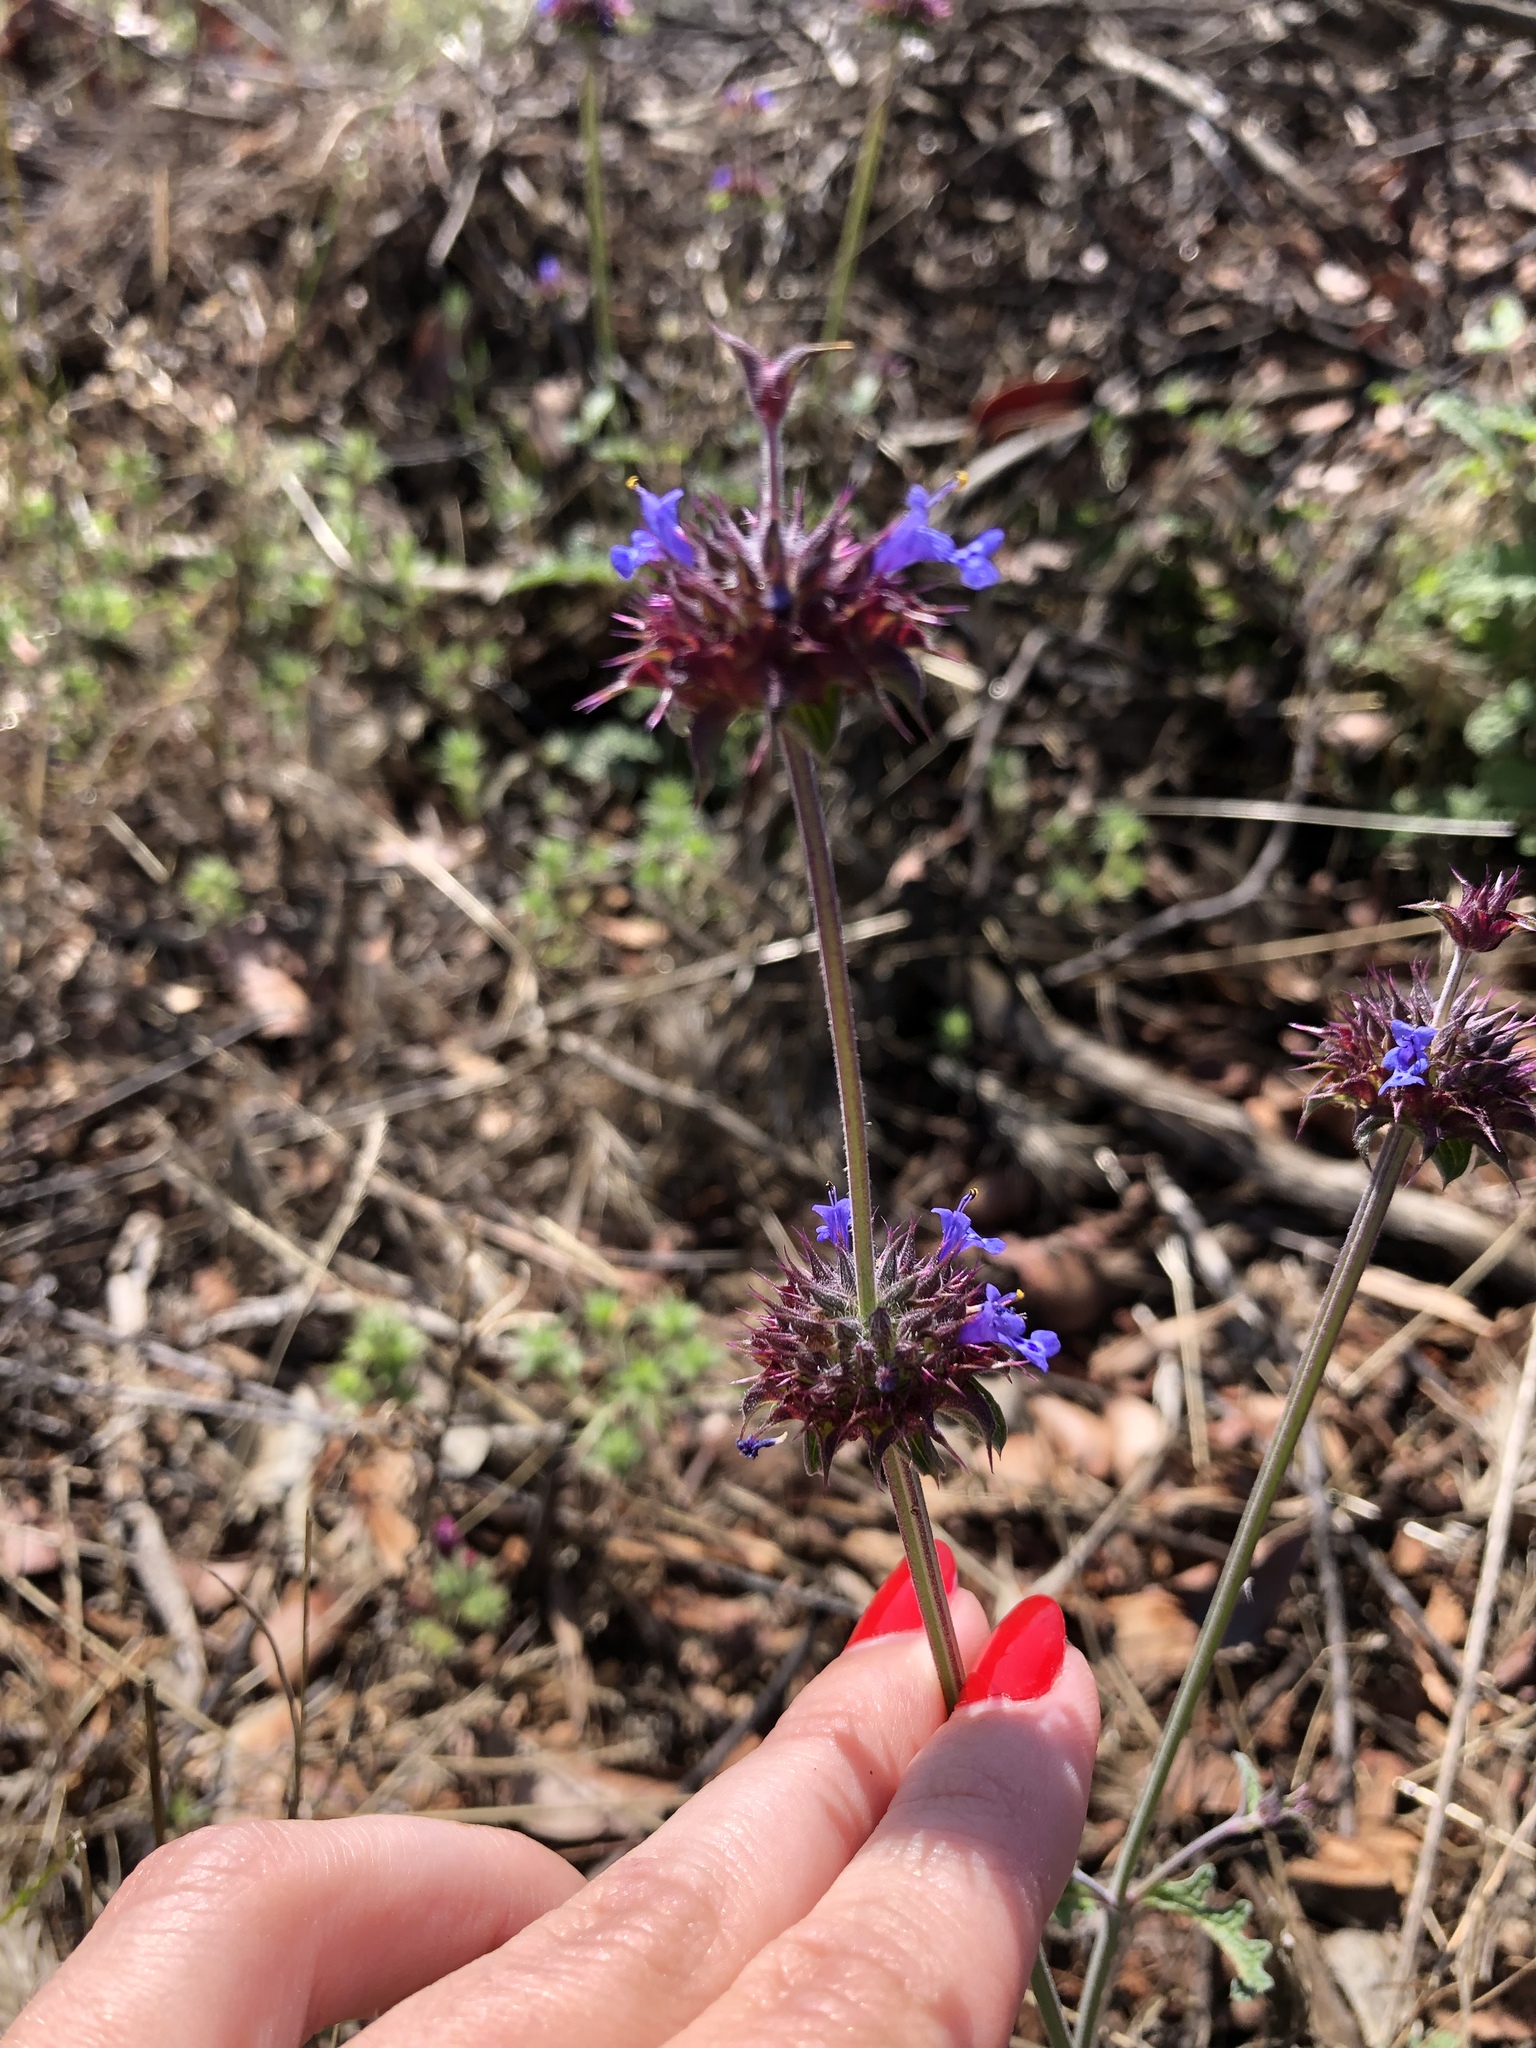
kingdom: Plantae
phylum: Tracheophyta
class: Magnoliopsida
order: Lamiales
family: Lamiaceae
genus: Salvia
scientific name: Salvia columbariae
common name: Chia
